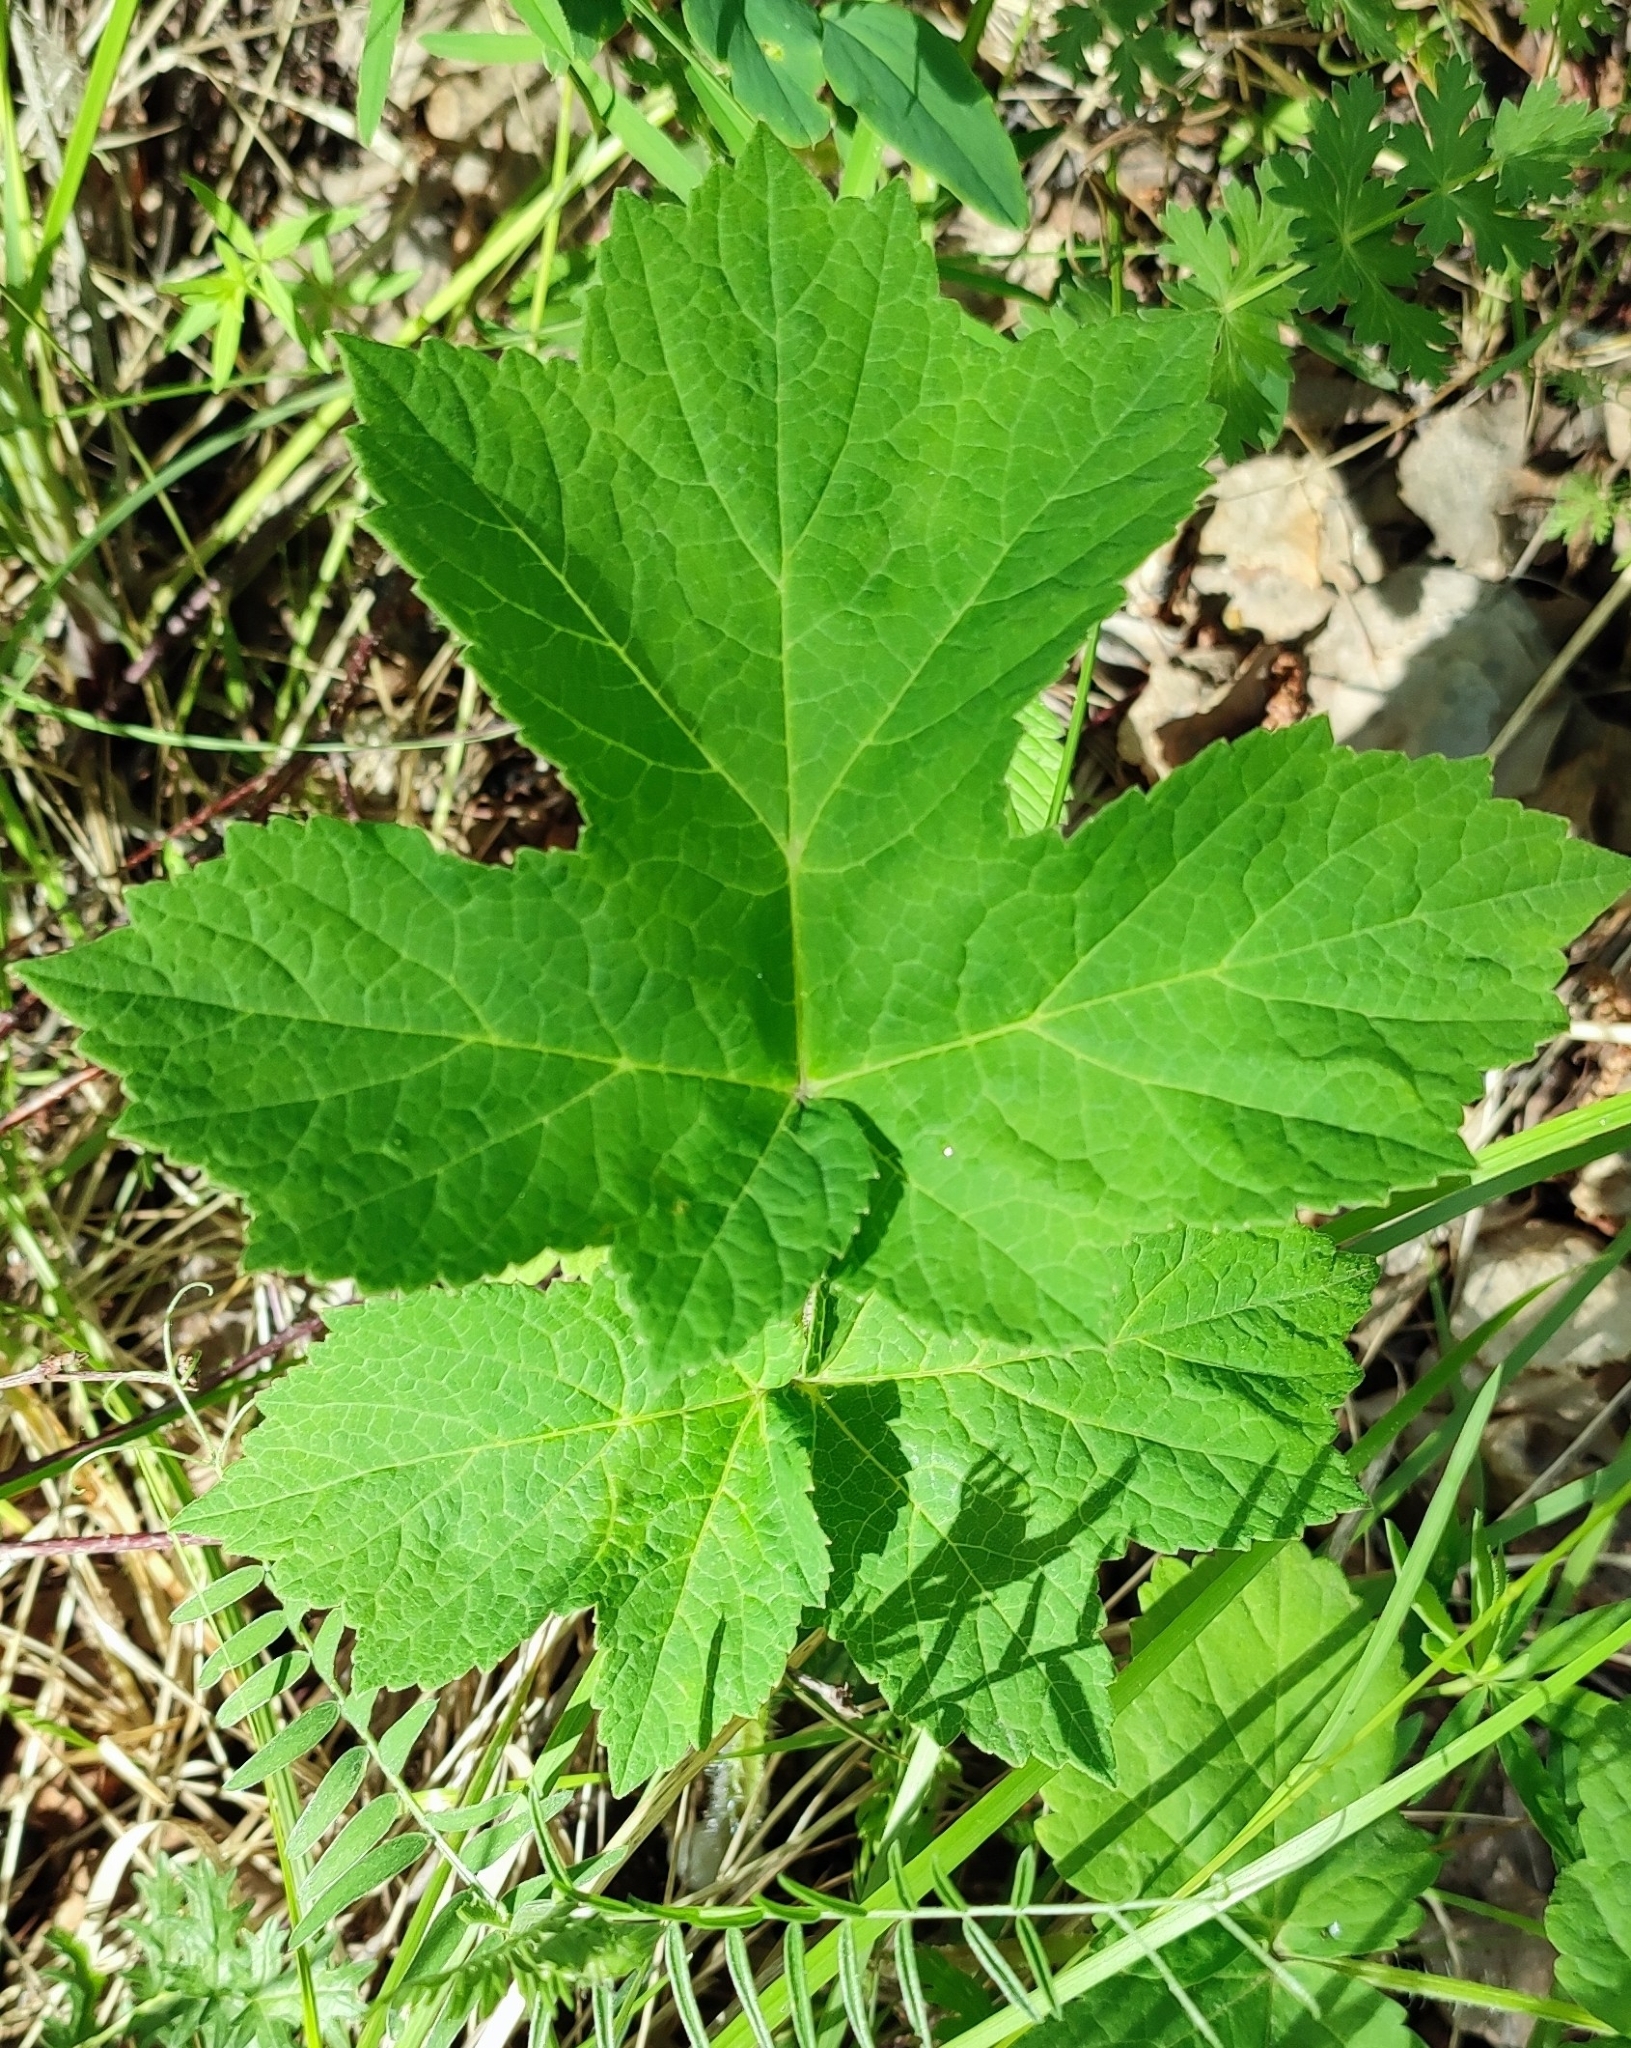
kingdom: Plantae
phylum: Tracheophyta
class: Magnoliopsida
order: Apiales
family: Apiaceae
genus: Heracleum
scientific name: Heracleum sphondylium
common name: Hogweed
